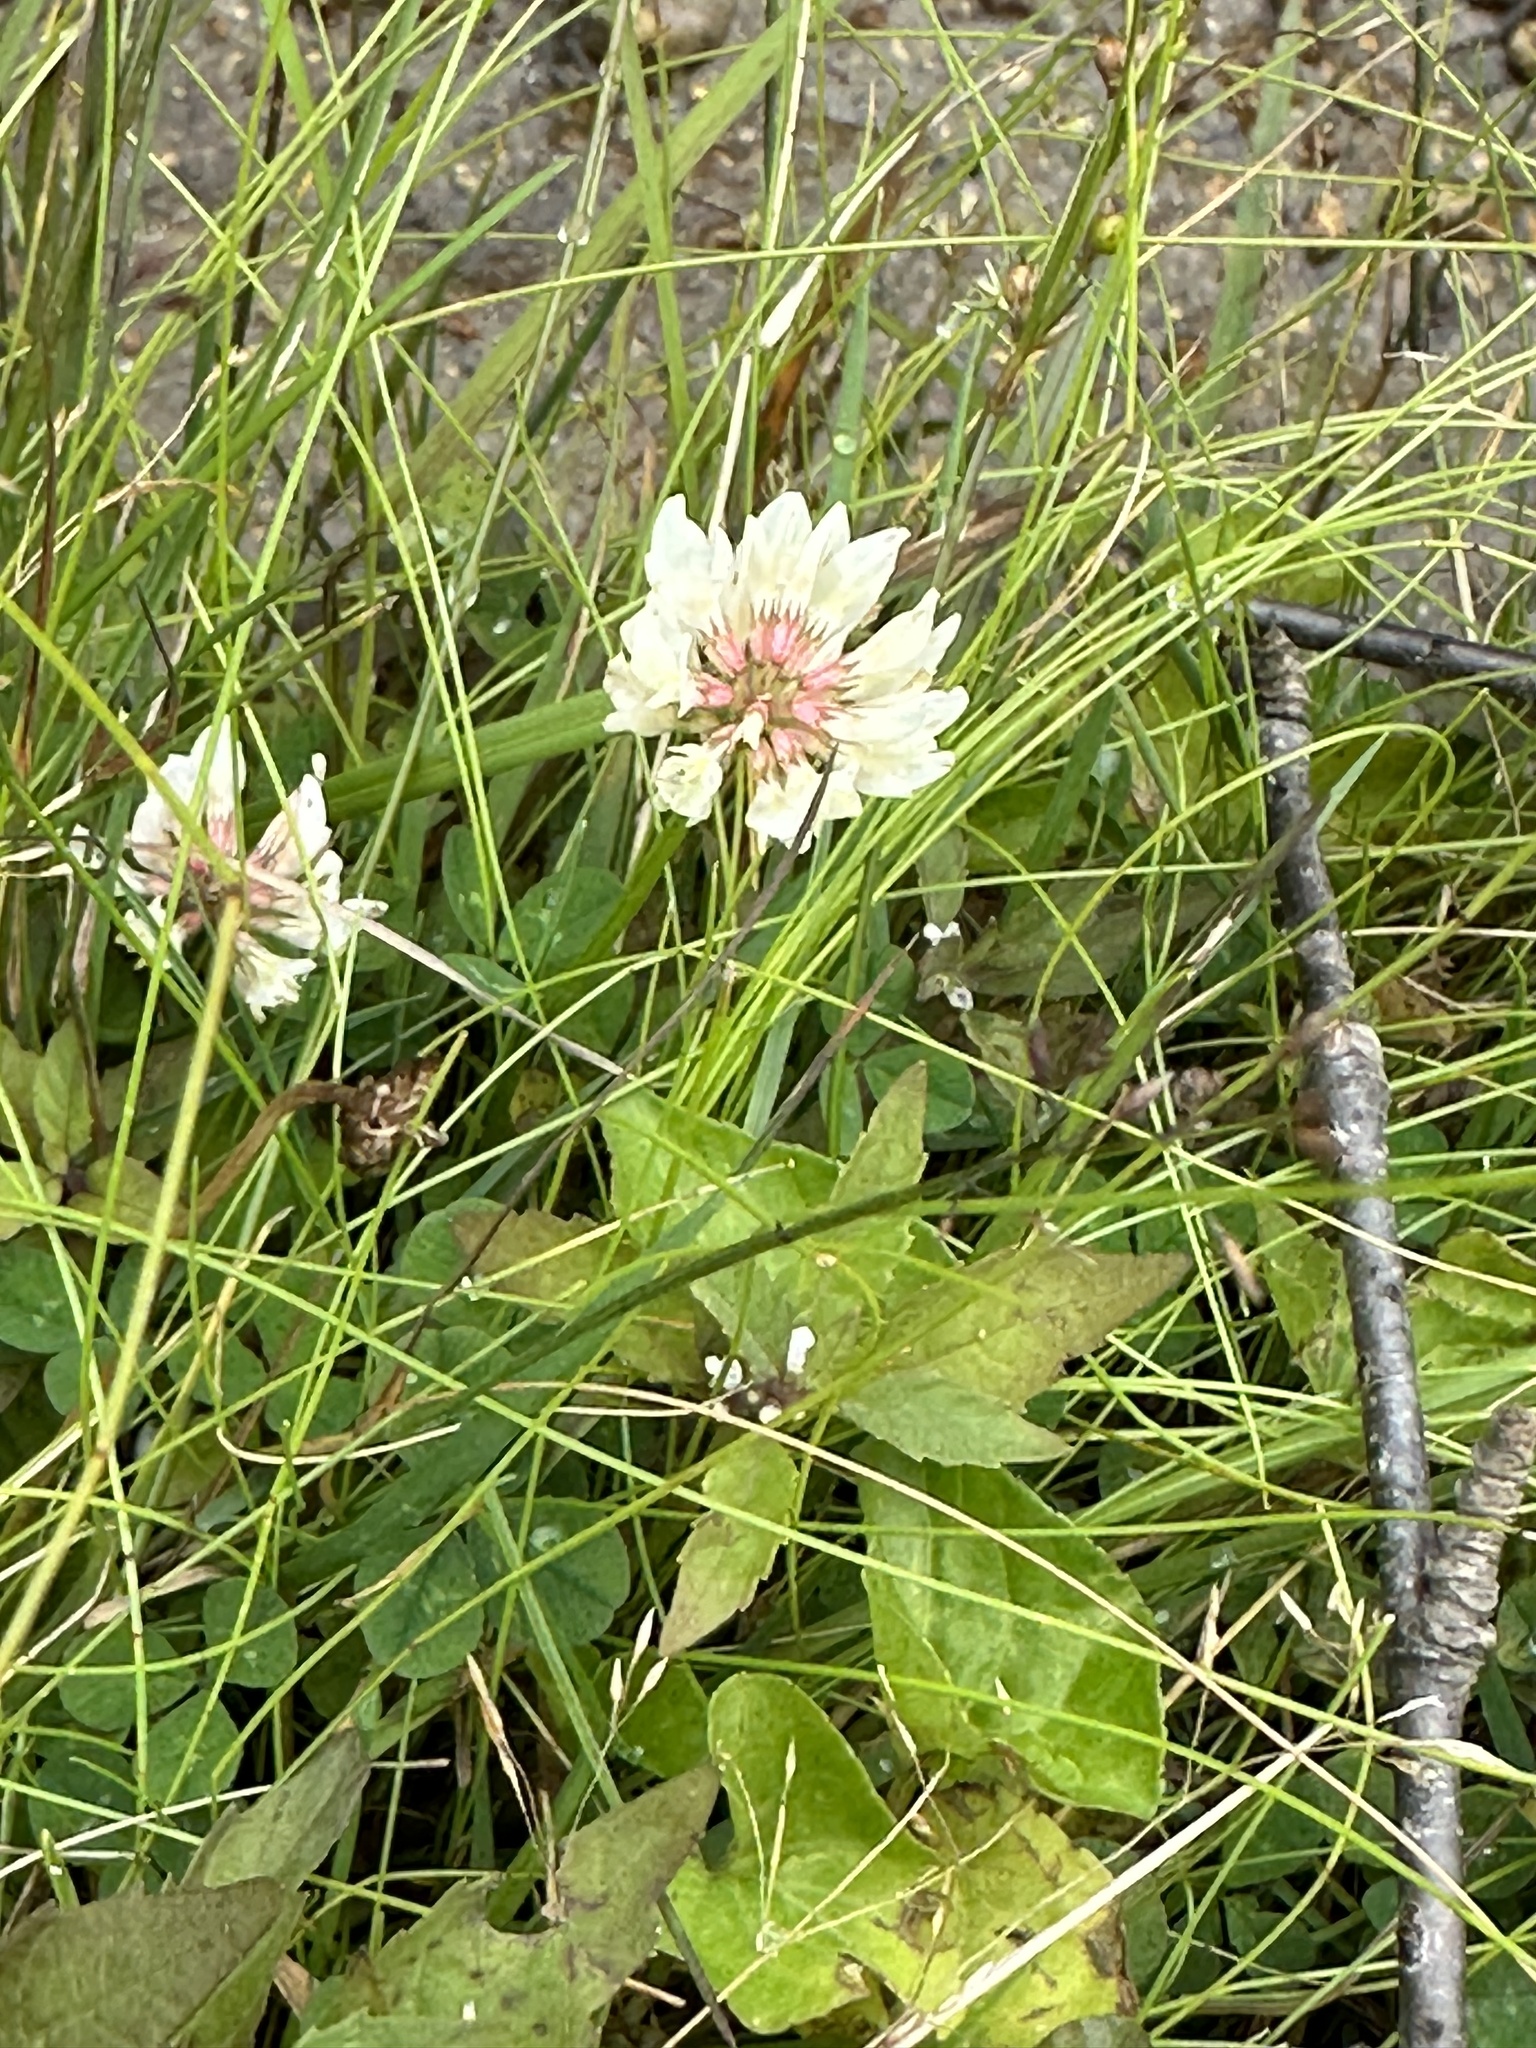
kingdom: Plantae
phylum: Tracheophyta
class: Magnoliopsida
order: Fabales
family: Fabaceae
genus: Trifolium
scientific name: Trifolium repens
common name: White clover
